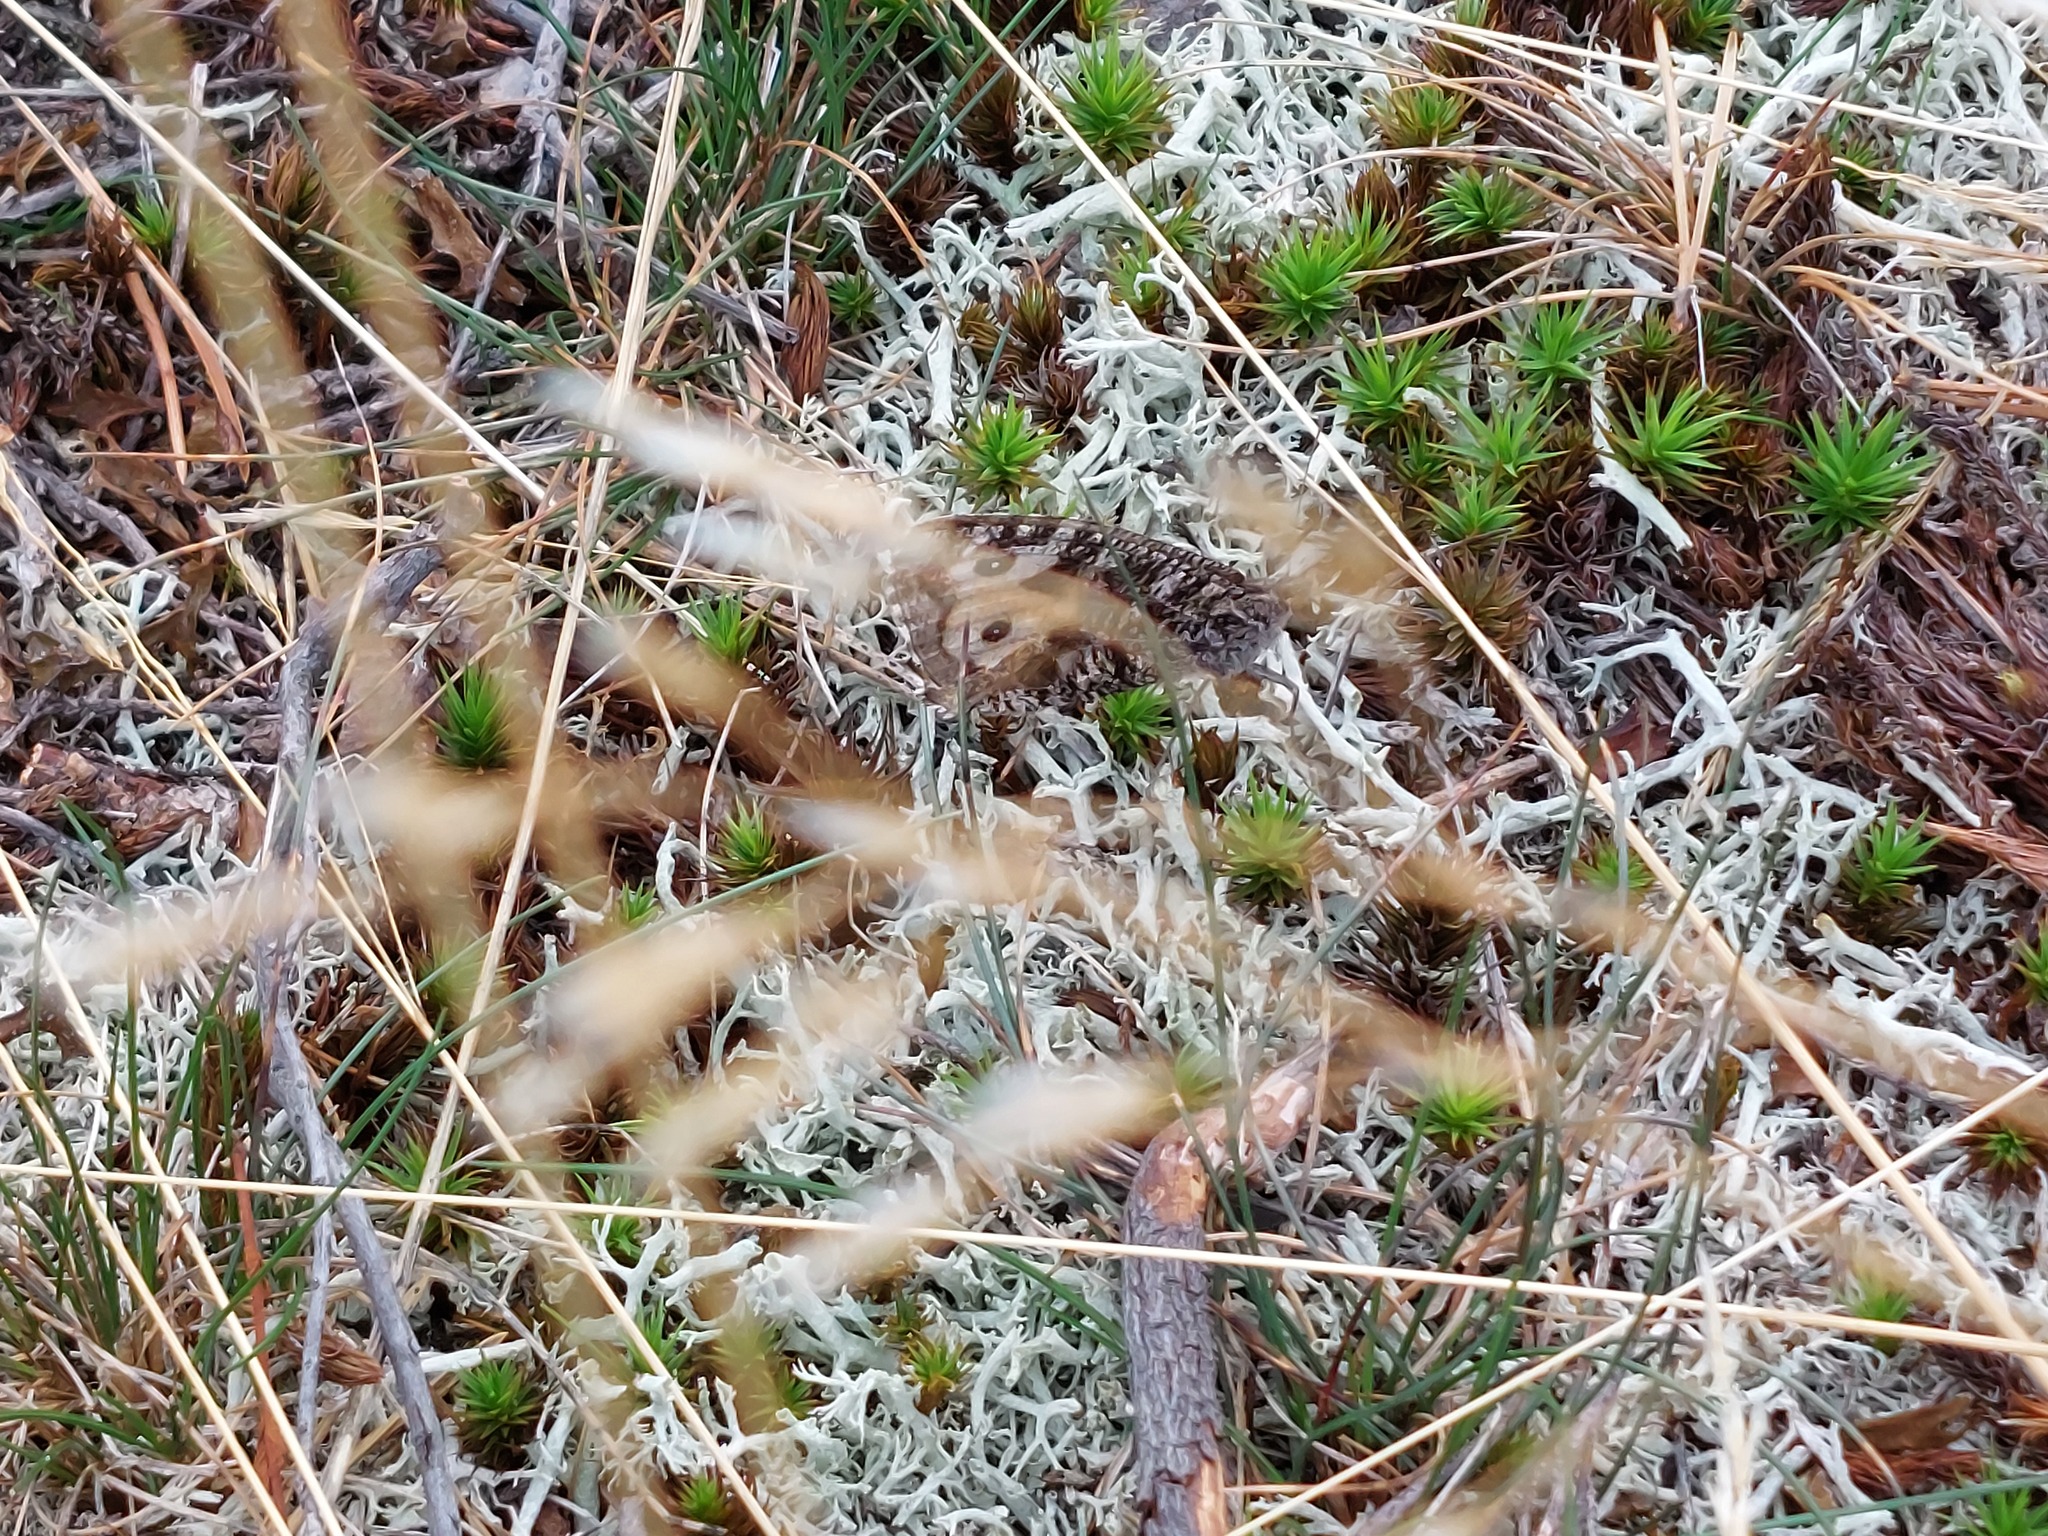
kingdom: Animalia
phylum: Arthropoda
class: Insecta
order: Lepidoptera
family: Nymphalidae
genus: Hipparchia
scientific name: Hipparchia semele
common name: Grayling
